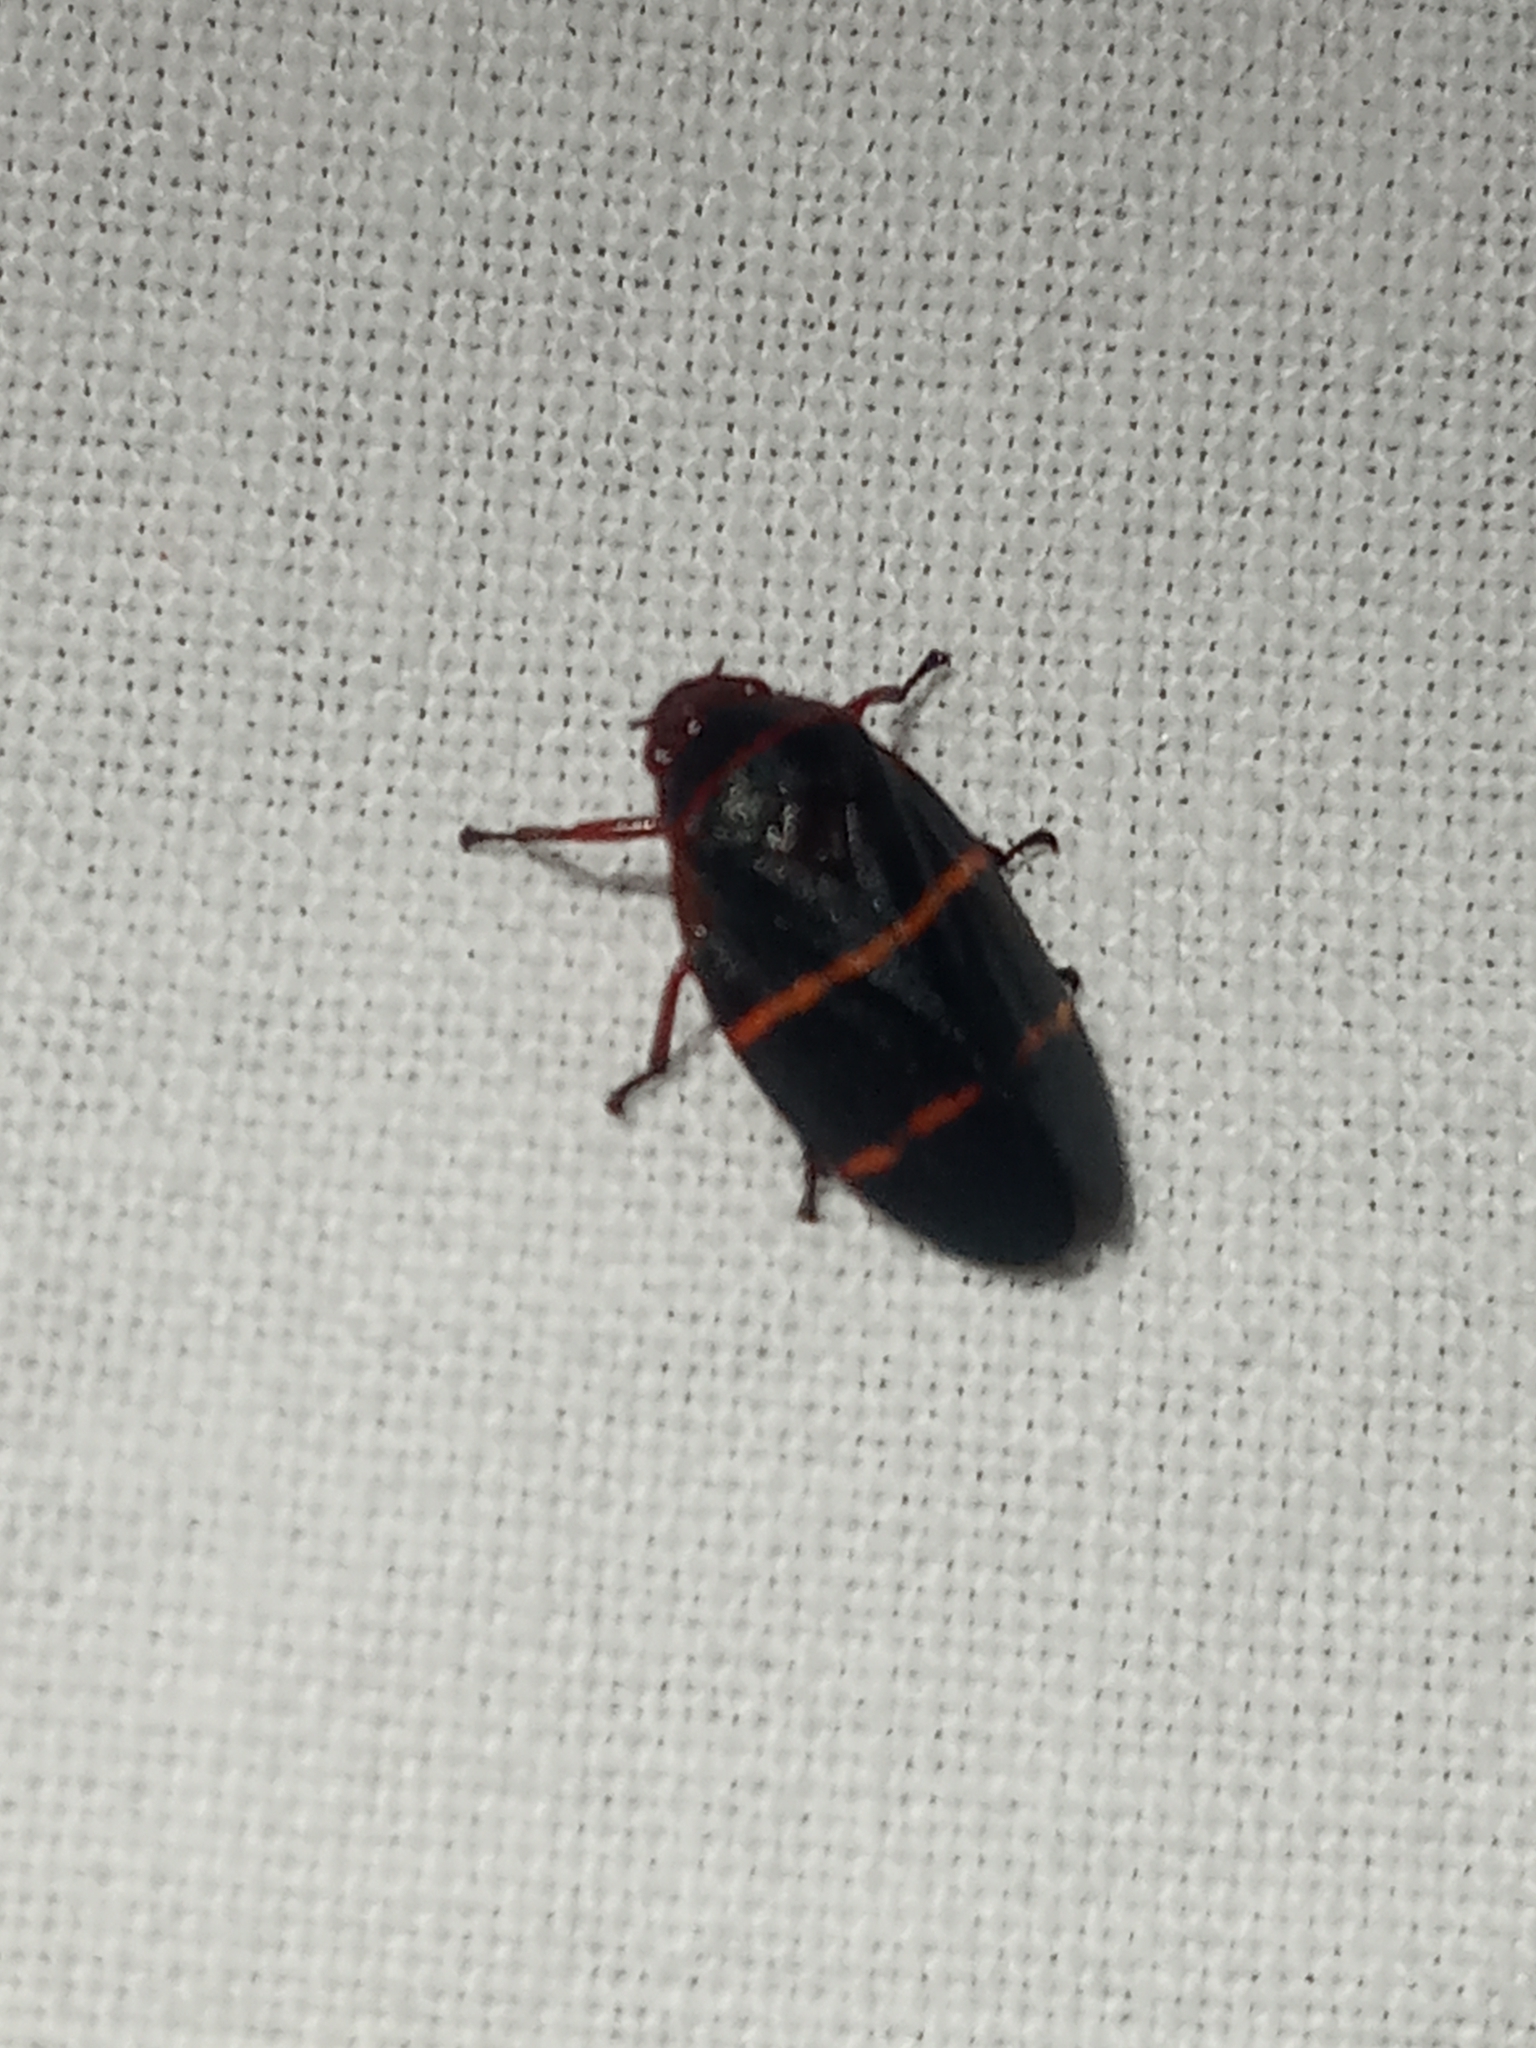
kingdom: Animalia
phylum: Arthropoda
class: Insecta
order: Hemiptera
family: Cercopidae
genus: Prosapia
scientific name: Prosapia bicincta
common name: Twolined spittlebug
